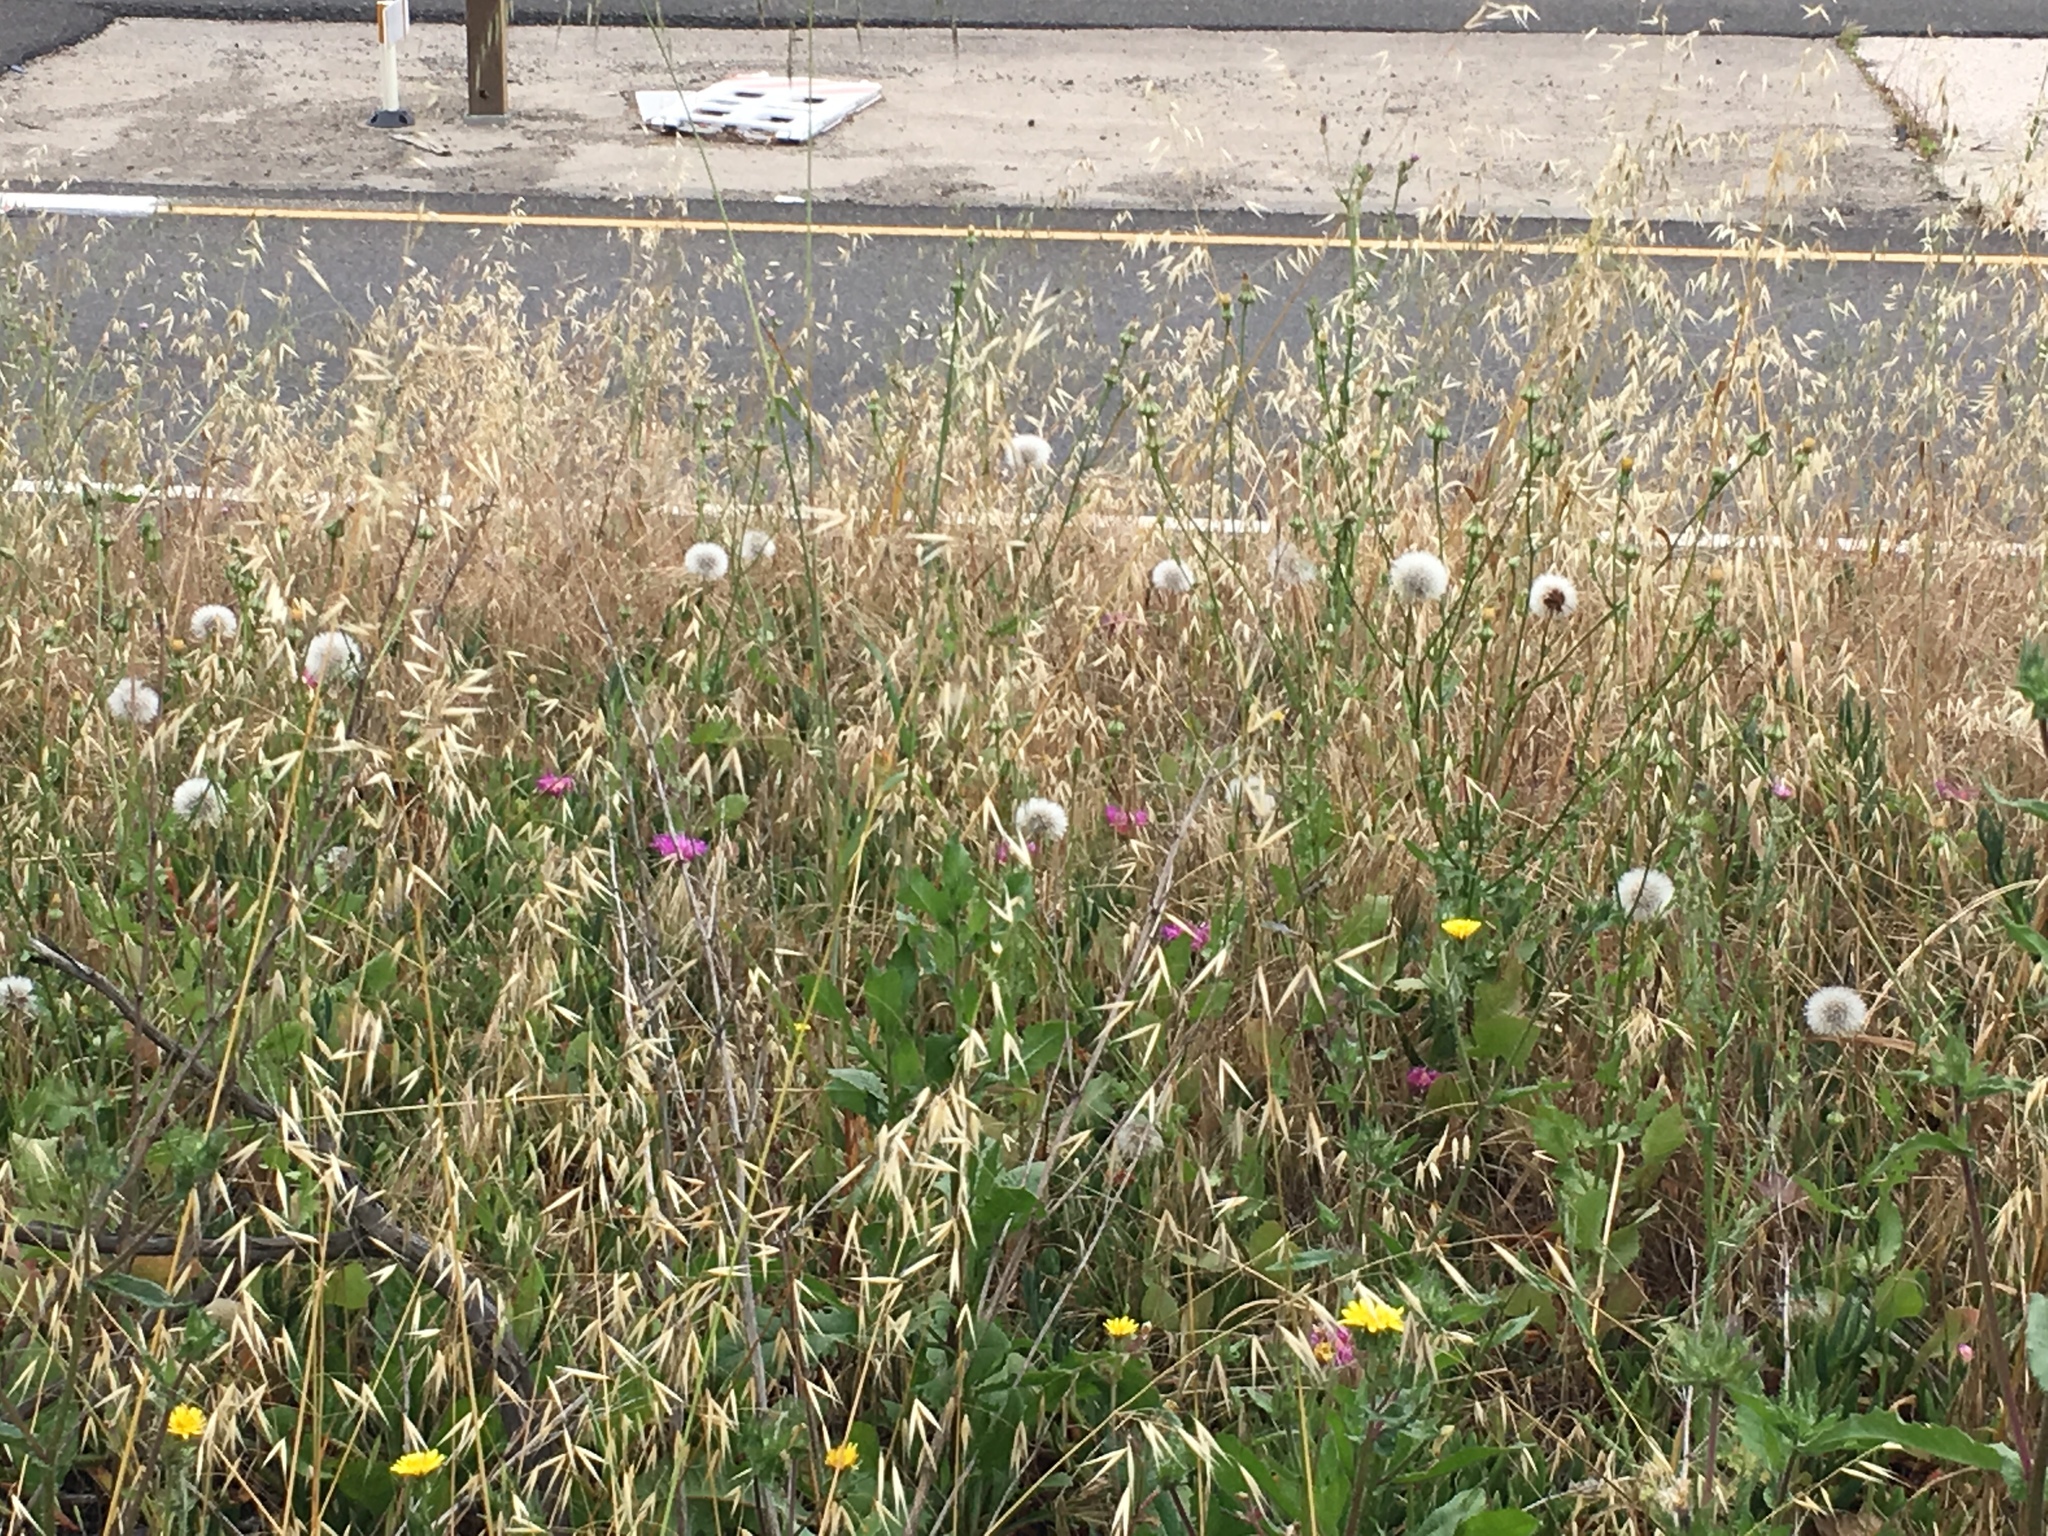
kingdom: Plantae
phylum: Tracheophyta
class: Magnoliopsida
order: Asterales
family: Asteraceae
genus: Urospermum
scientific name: Urospermum picroides
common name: False hawkbit
